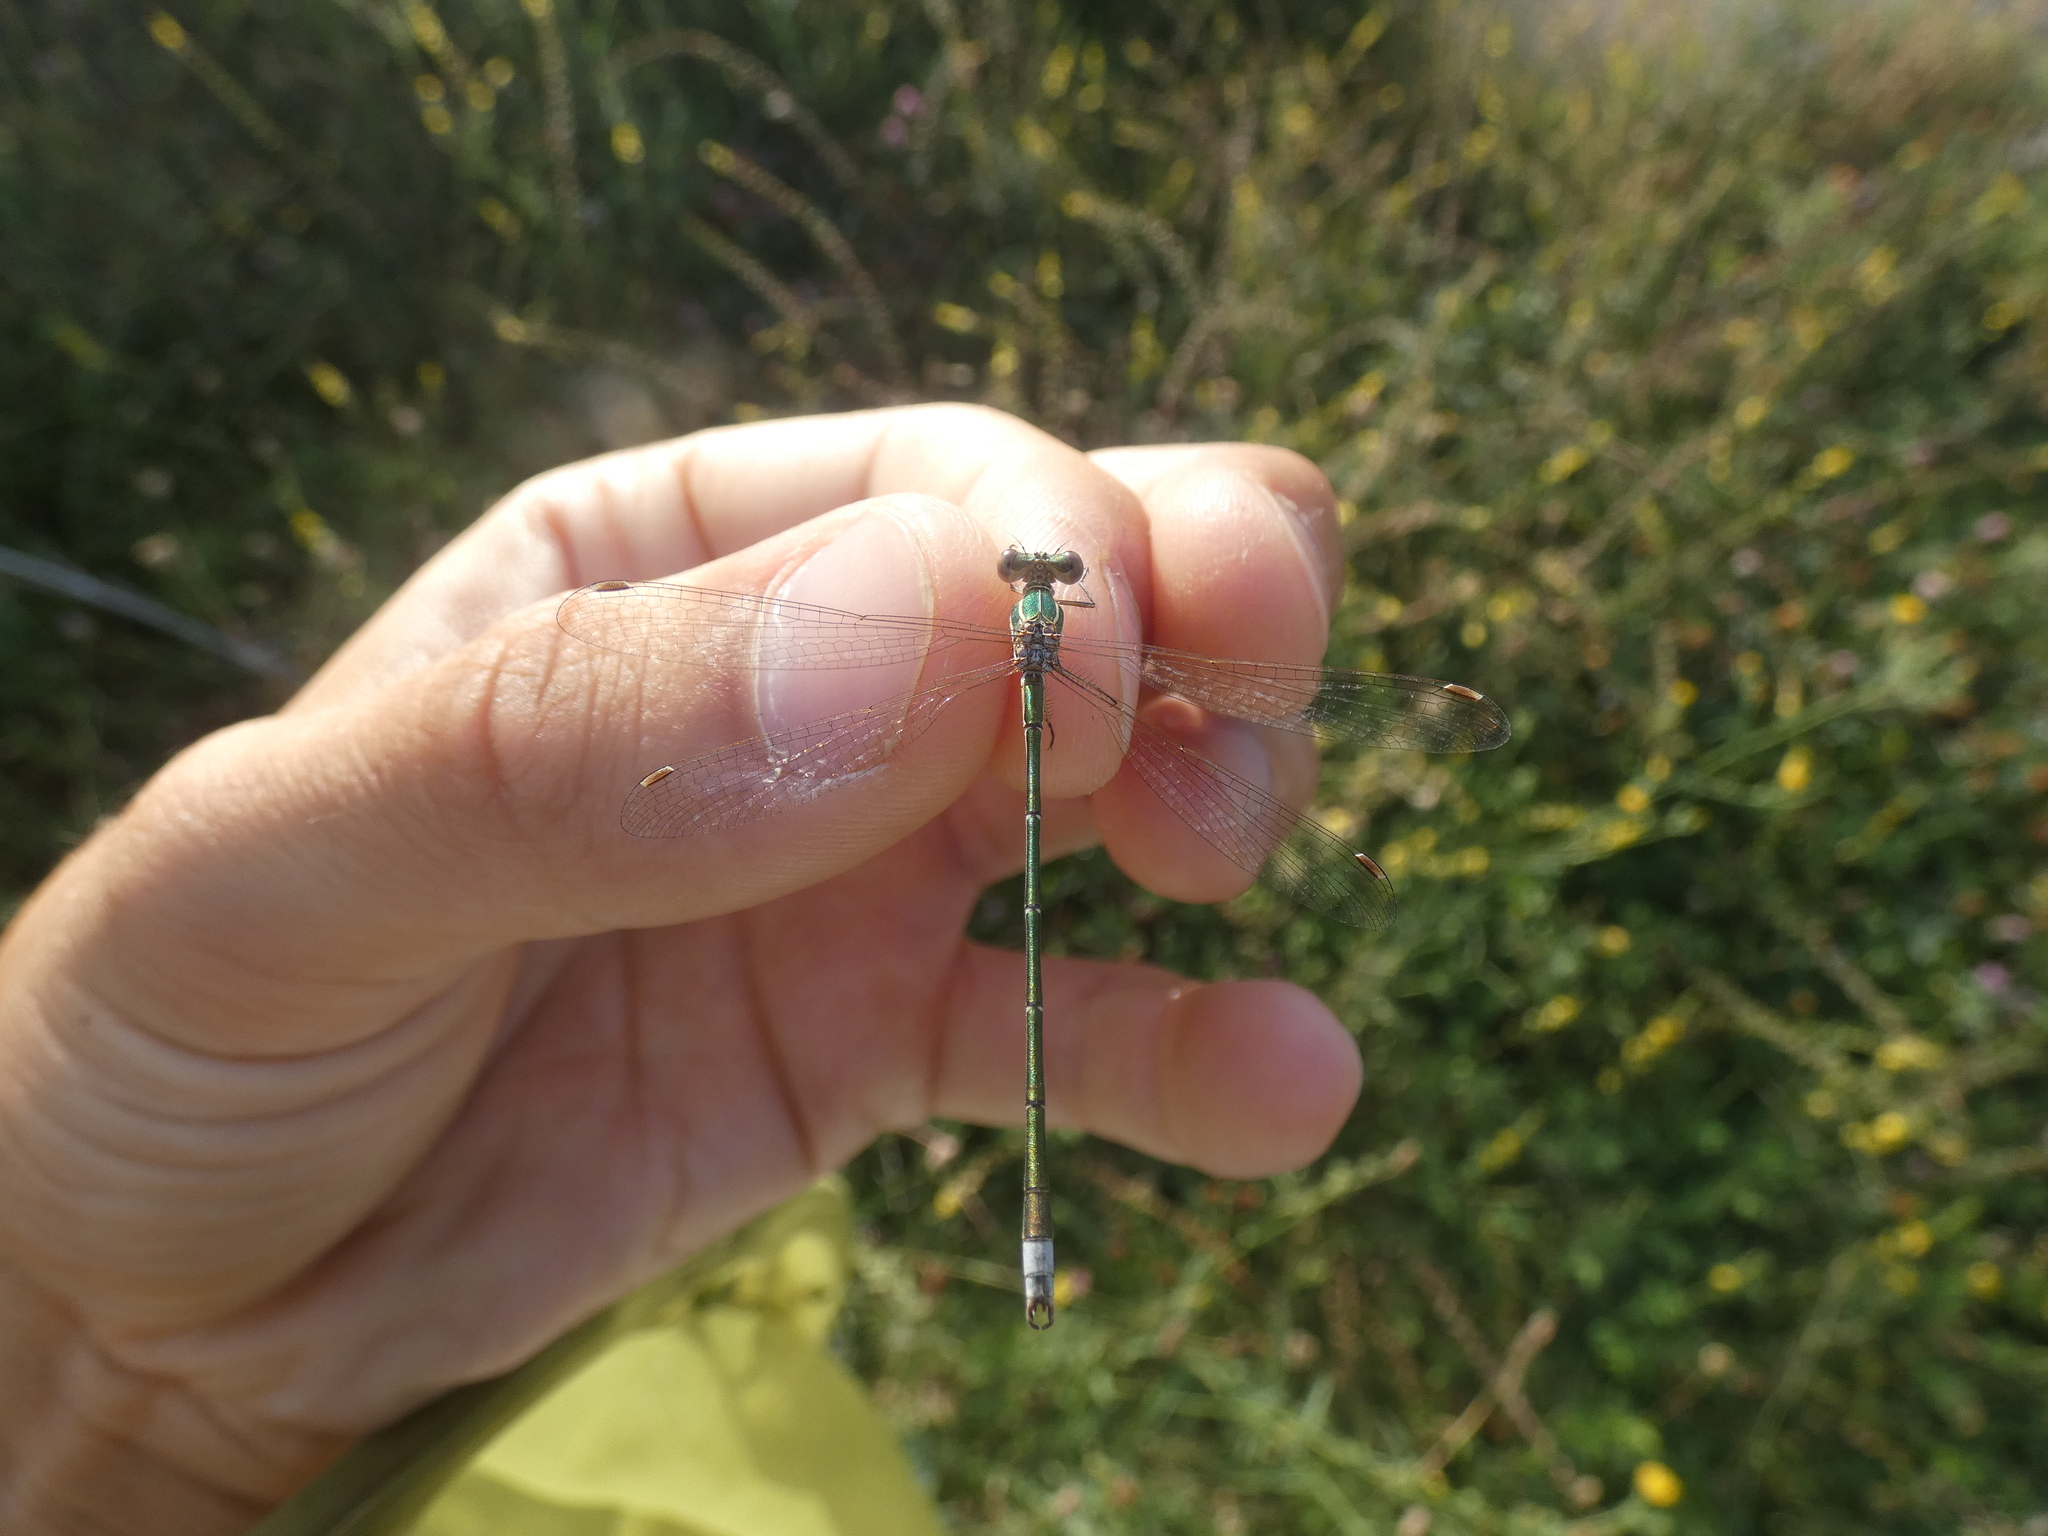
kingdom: Animalia
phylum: Arthropoda
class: Insecta
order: Odonata
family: Lestidae
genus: Lestes
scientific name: Lestes virens
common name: Small emerald spreadwing
